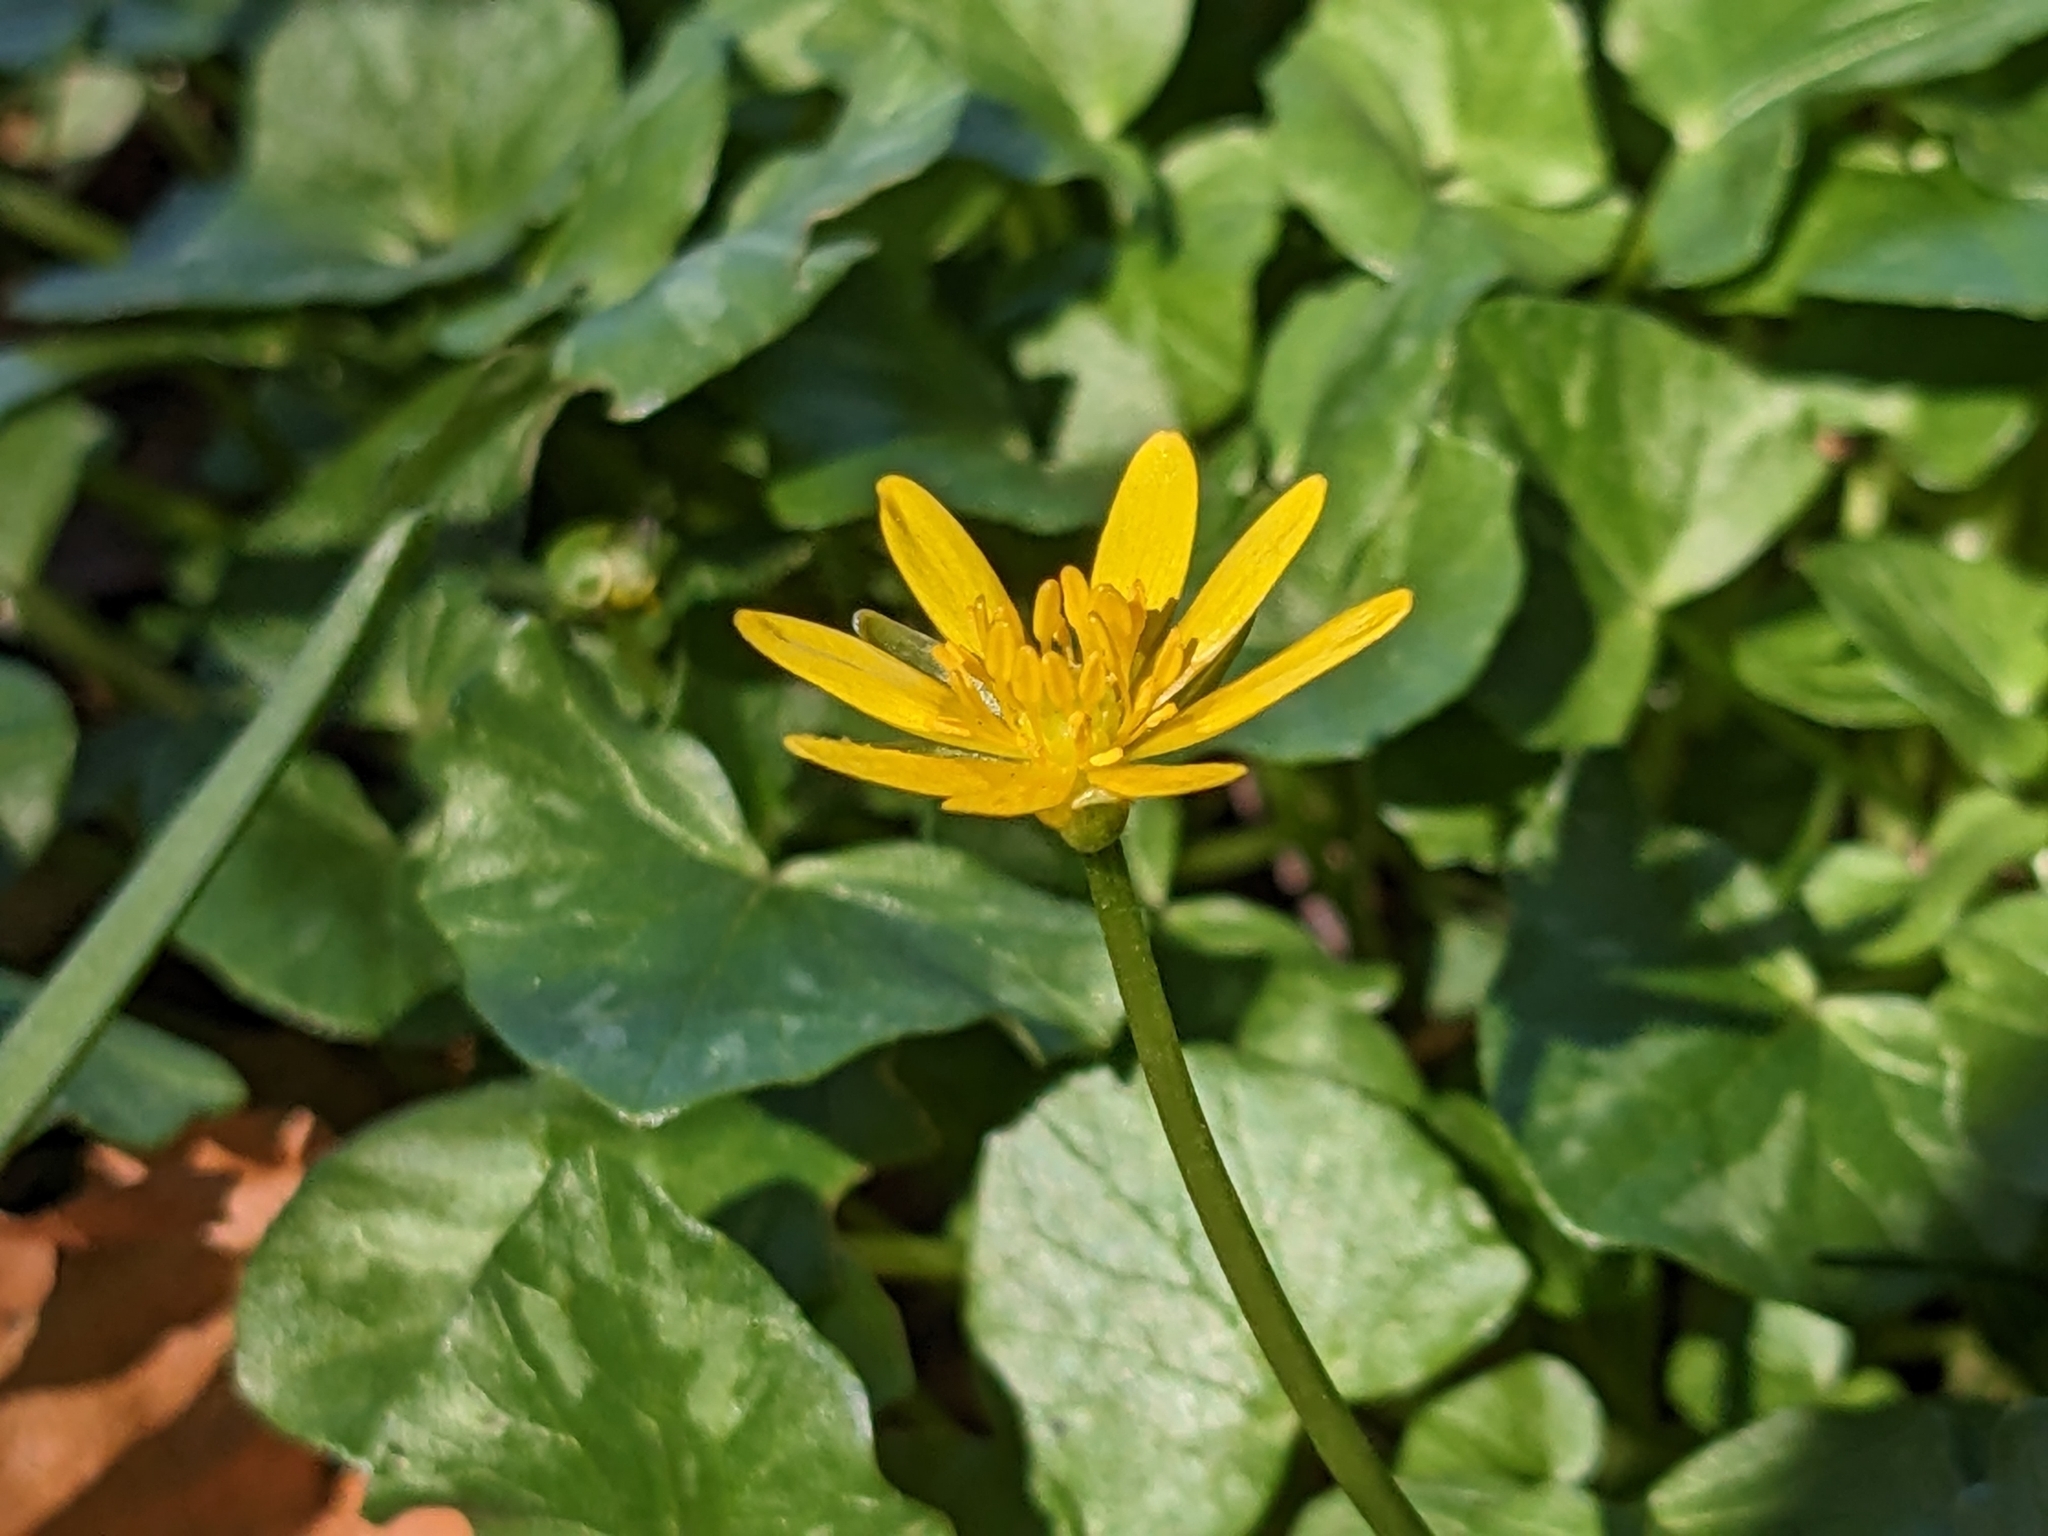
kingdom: Plantae
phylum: Tracheophyta
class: Magnoliopsida
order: Ranunculales
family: Ranunculaceae
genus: Ficaria
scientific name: Ficaria verna
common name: Lesser celandine
